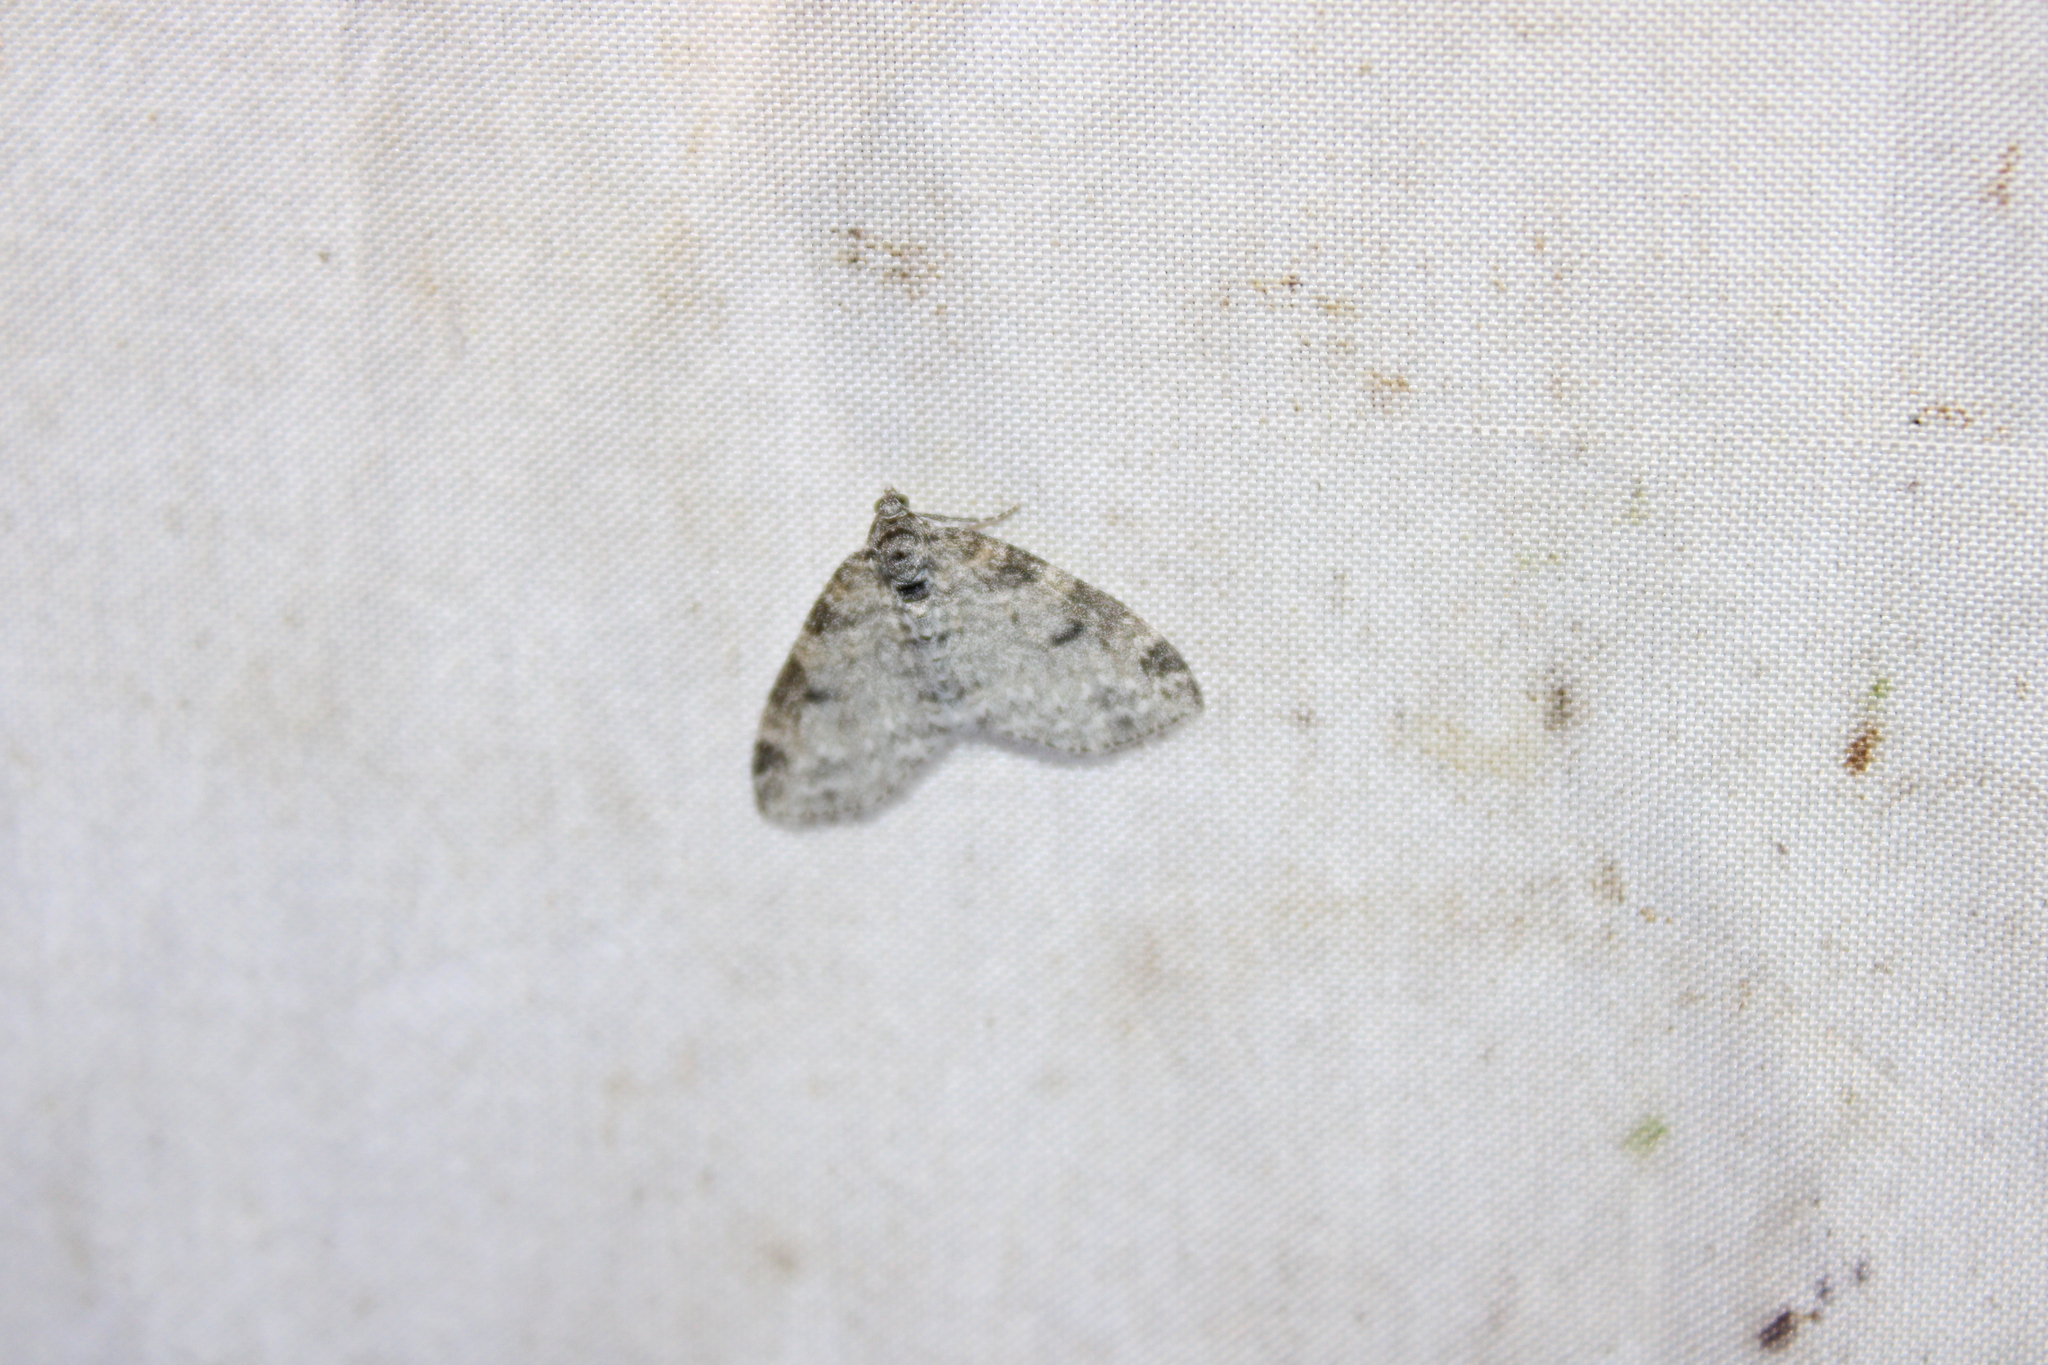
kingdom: Animalia
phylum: Arthropoda
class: Insecta
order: Lepidoptera
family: Geometridae
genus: Lobophora
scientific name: Lobophora nivigerata
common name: Powdered bigwing
